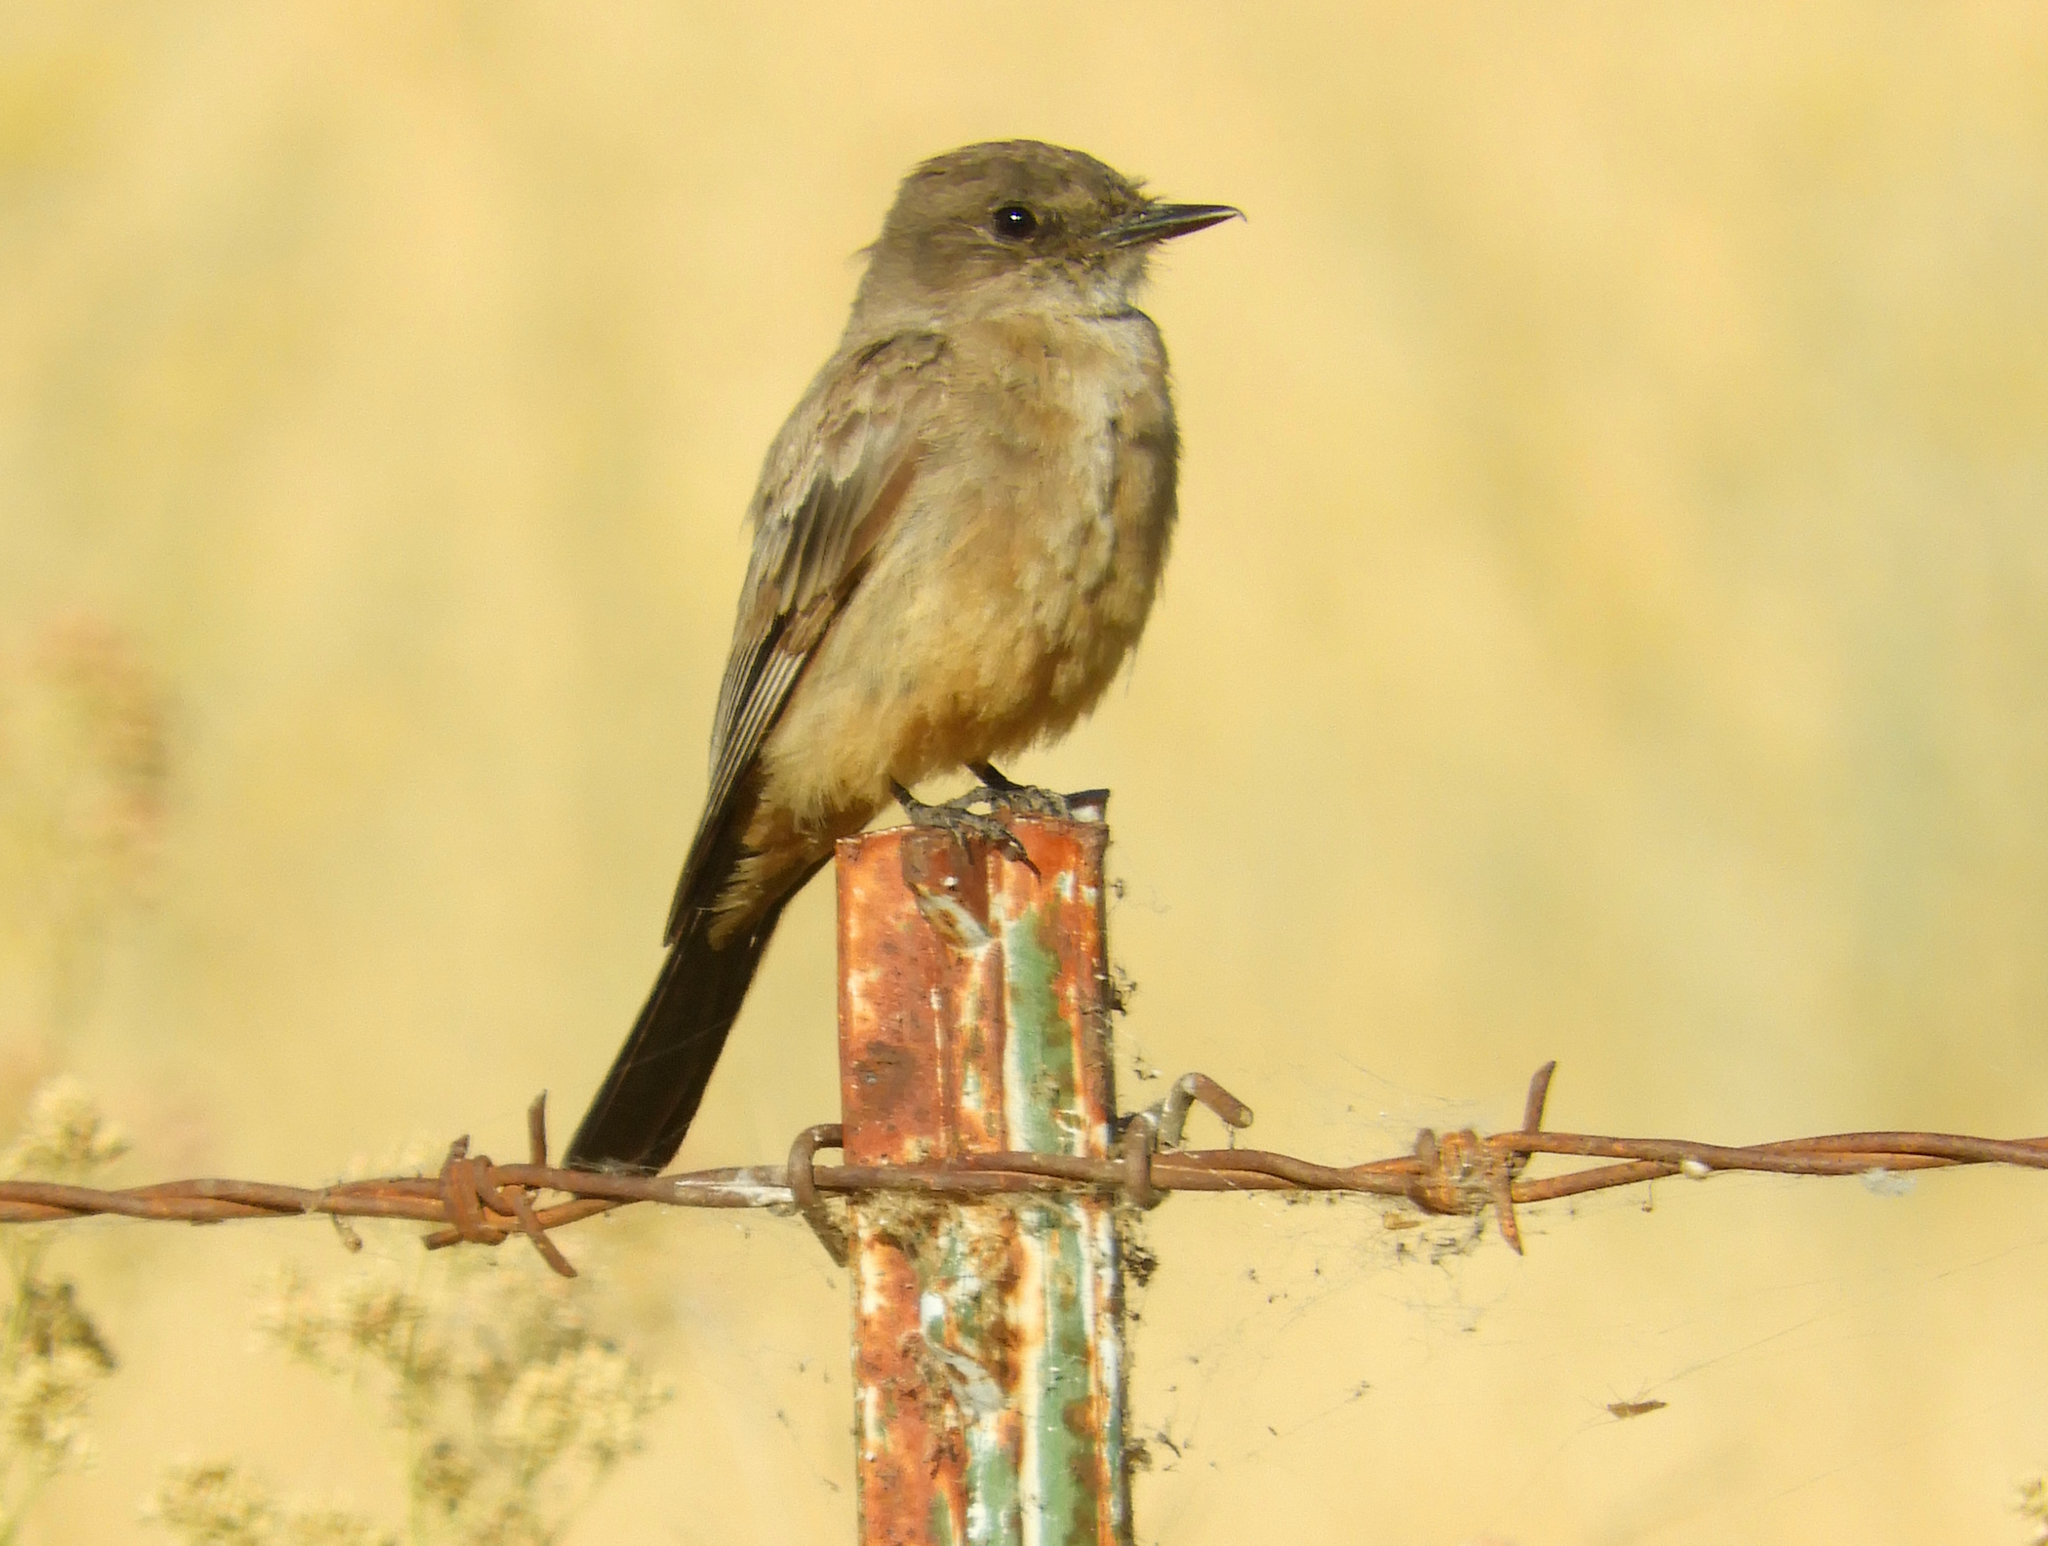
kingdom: Animalia
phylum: Chordata
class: Aves
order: Passeriformes
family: Tyrannidae
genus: Sayornis
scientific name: Sayornis saya
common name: Say's phoebe
